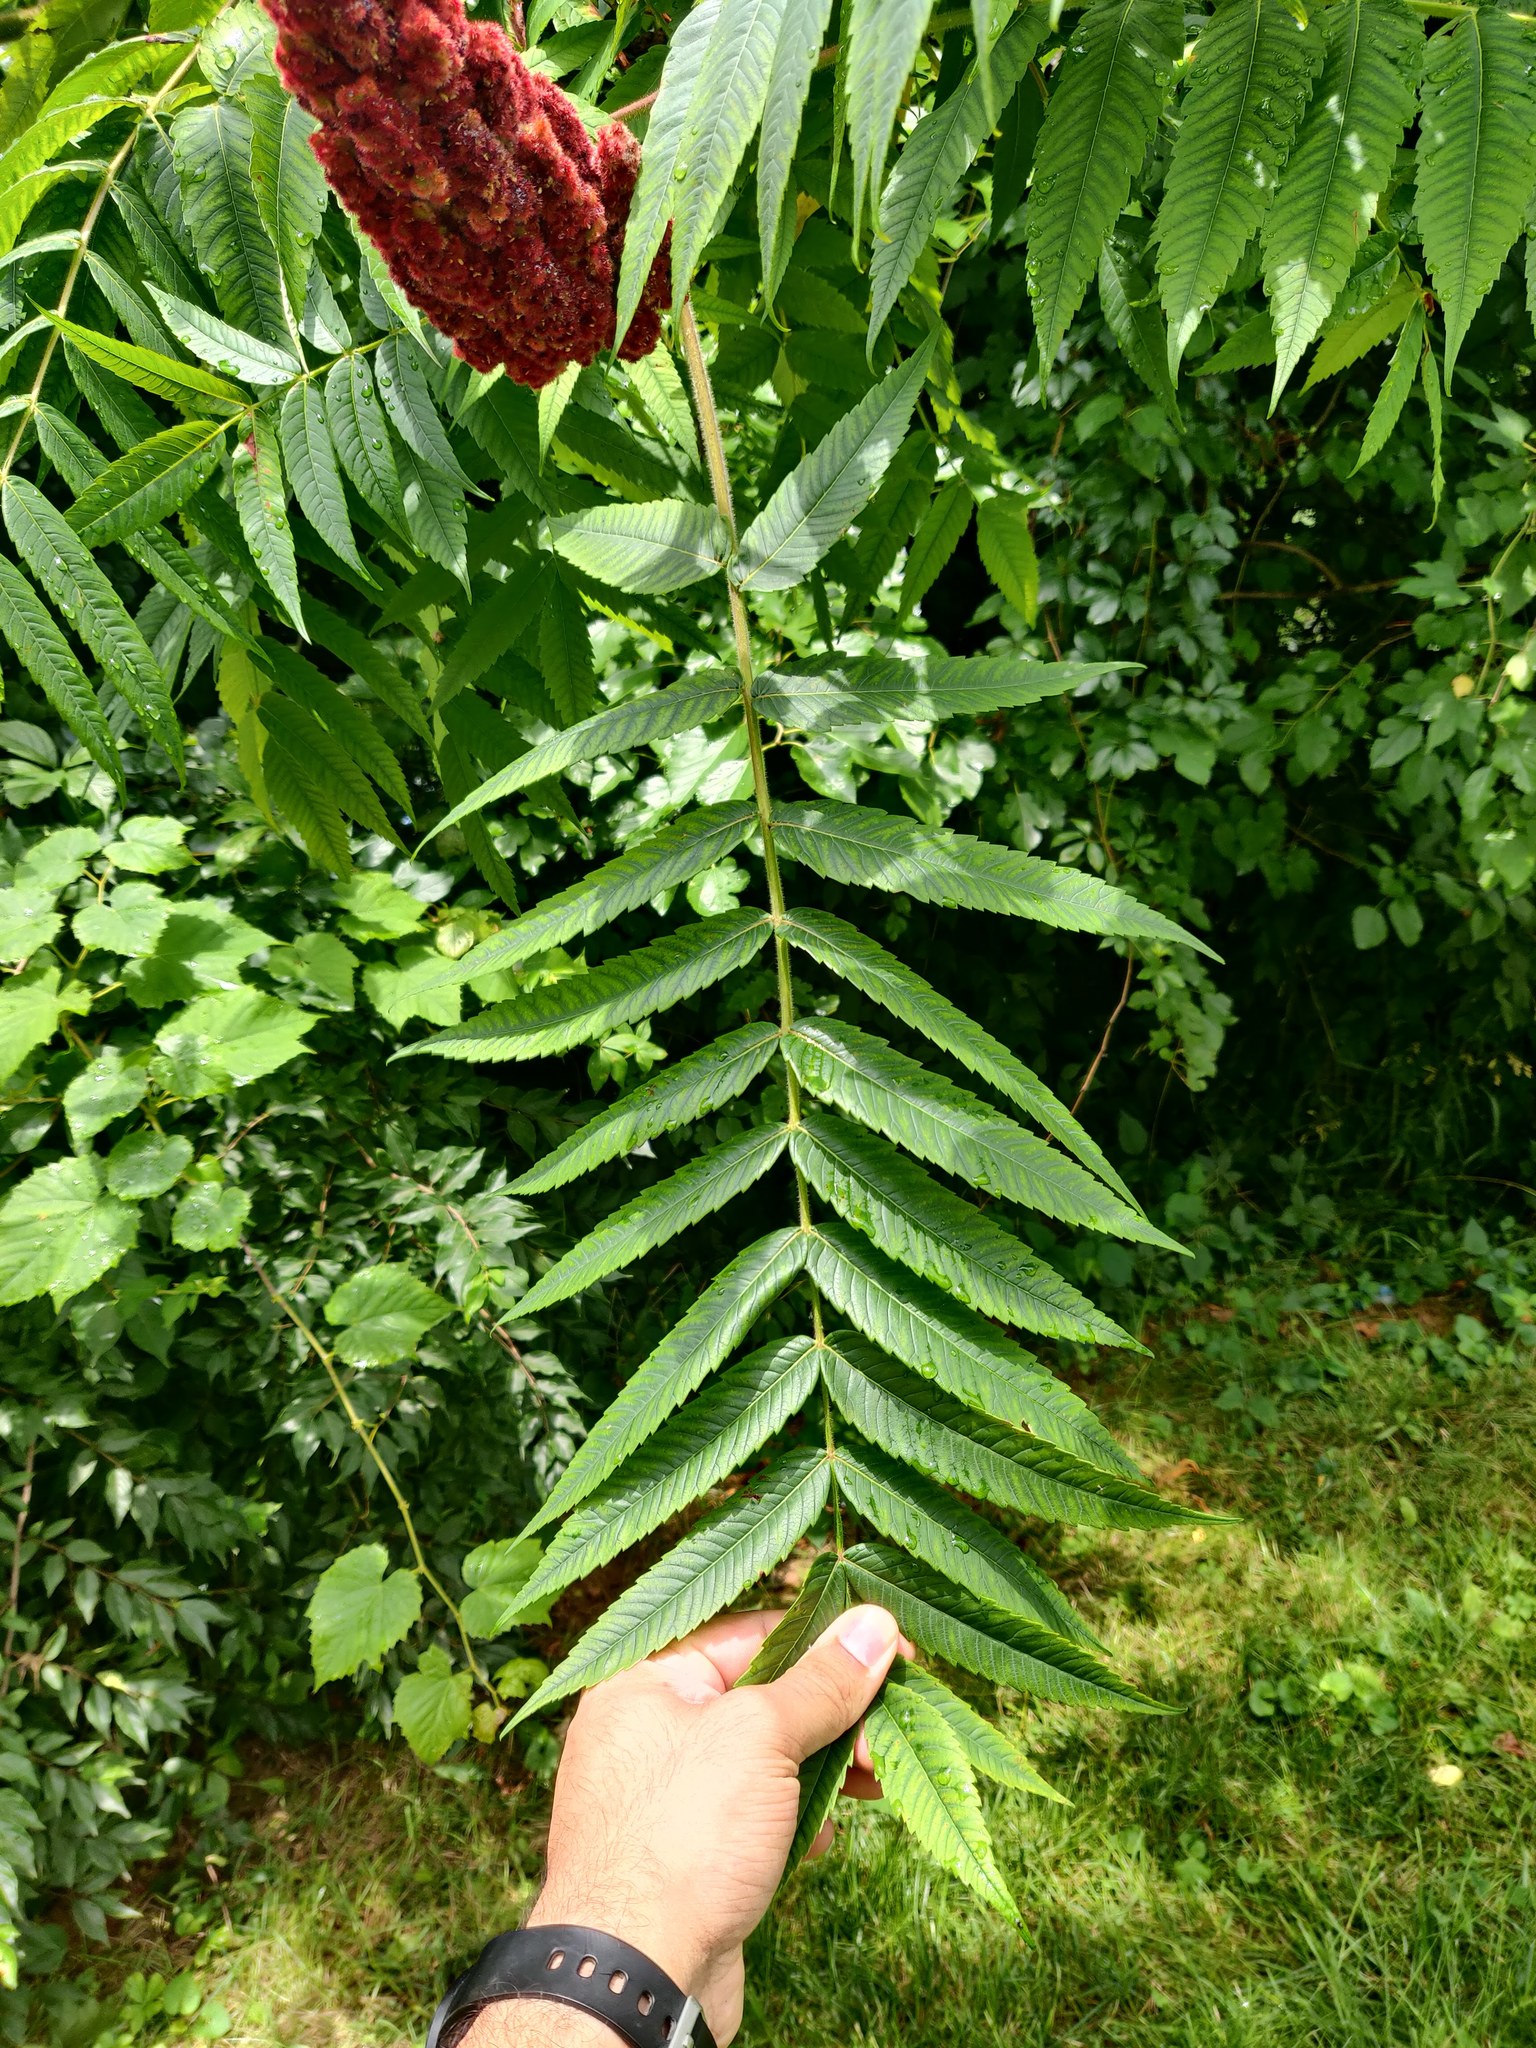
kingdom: Plantae
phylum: Tracheophyta
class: Magnoliopsida
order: Sapindales
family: Anacardiaceae
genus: Rhus
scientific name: Rhus typhina
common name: Staghorn sumac
